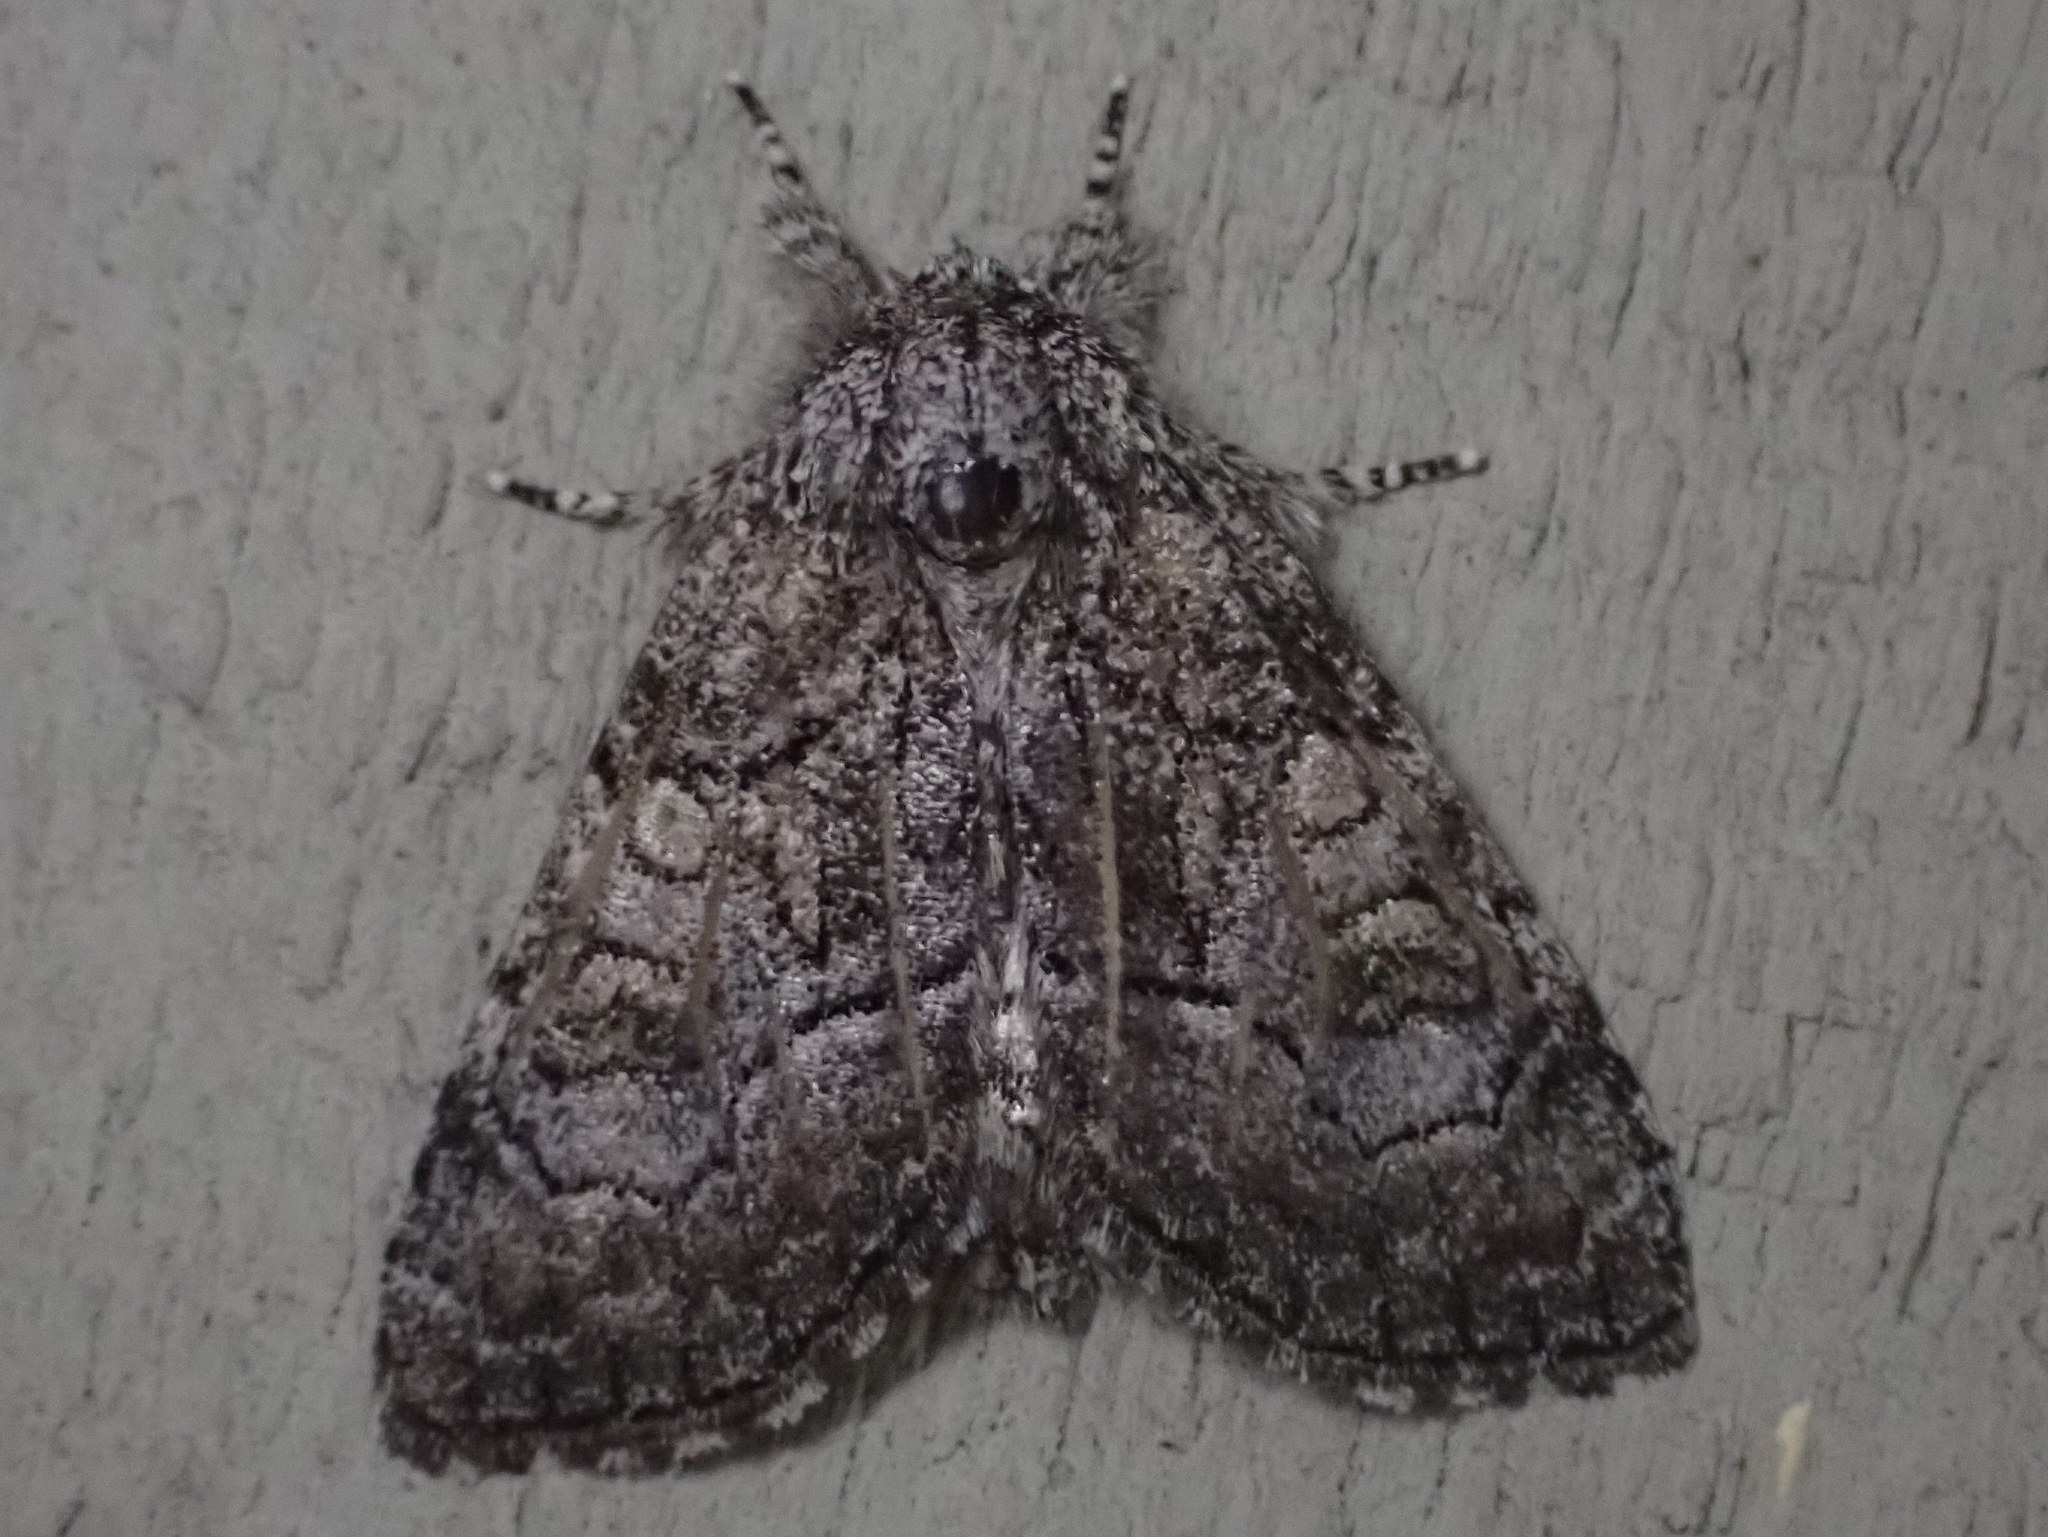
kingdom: Animalia
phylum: Arthropoda
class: Insecta
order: Lepidoptera
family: Noctuidae
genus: Raphia
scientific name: Raphia frater
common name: Brother
